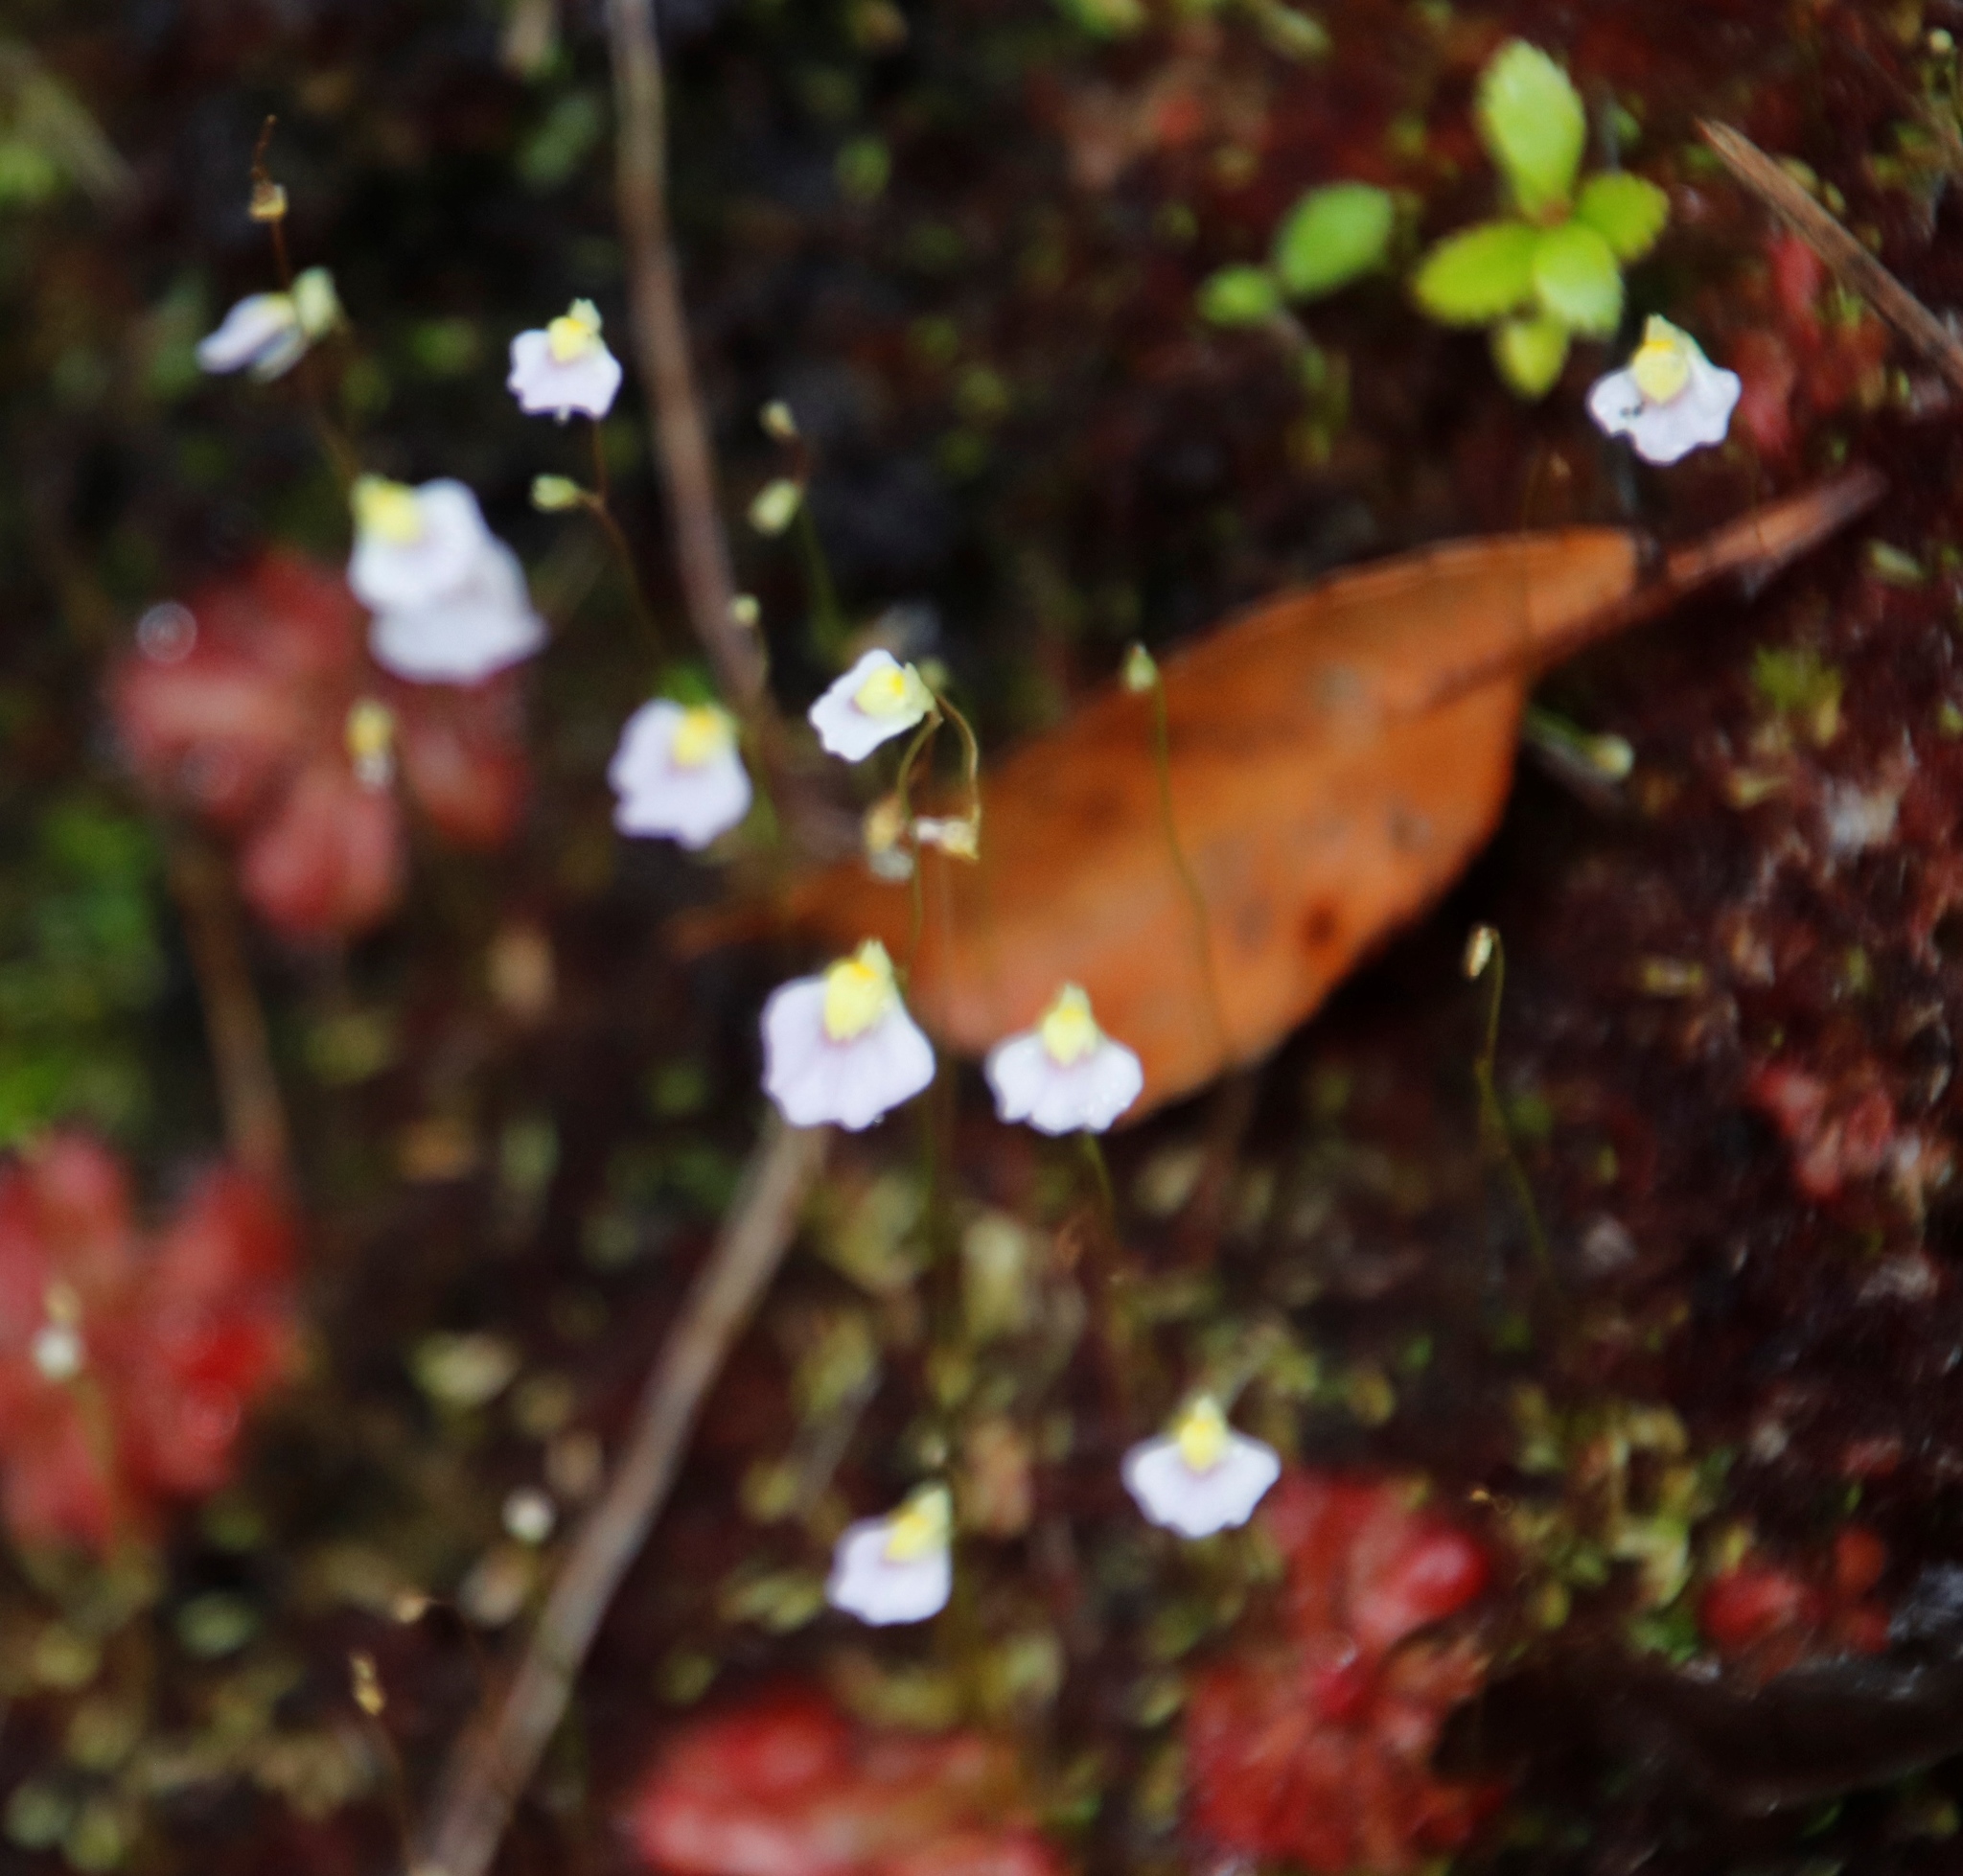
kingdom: Plantae
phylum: Tracheophyta
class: Magnoliopsida
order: Lamiales
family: Lentibulariaceae
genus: Utricularia
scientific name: Utricularia bisquamata
